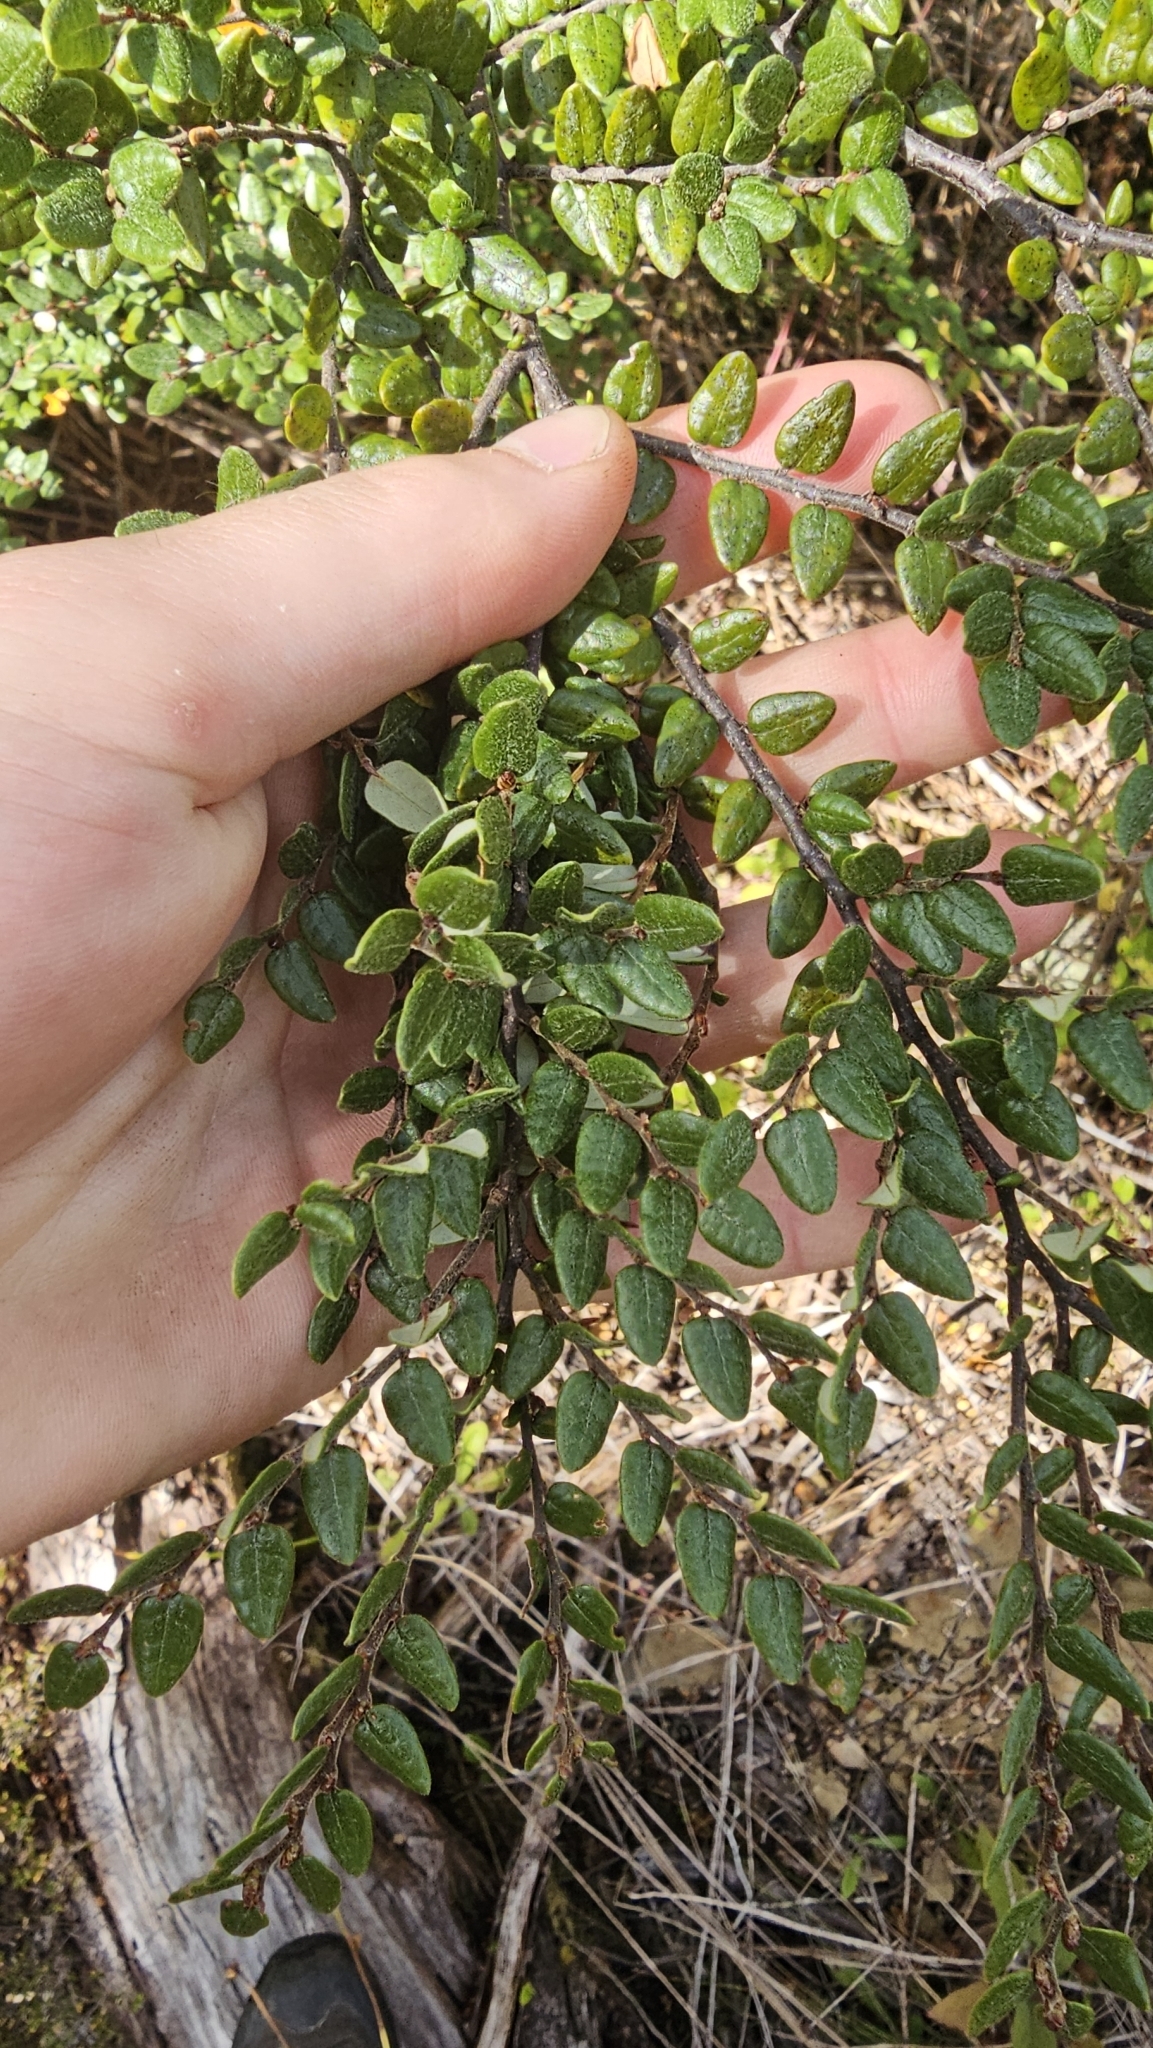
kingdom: Plantae
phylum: Tracheophyta
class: Magnoliopsida
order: Fagales
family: Nothofagaceae
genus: Nothofagus
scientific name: Nothofagus cliffortioides
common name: Mountain beech
